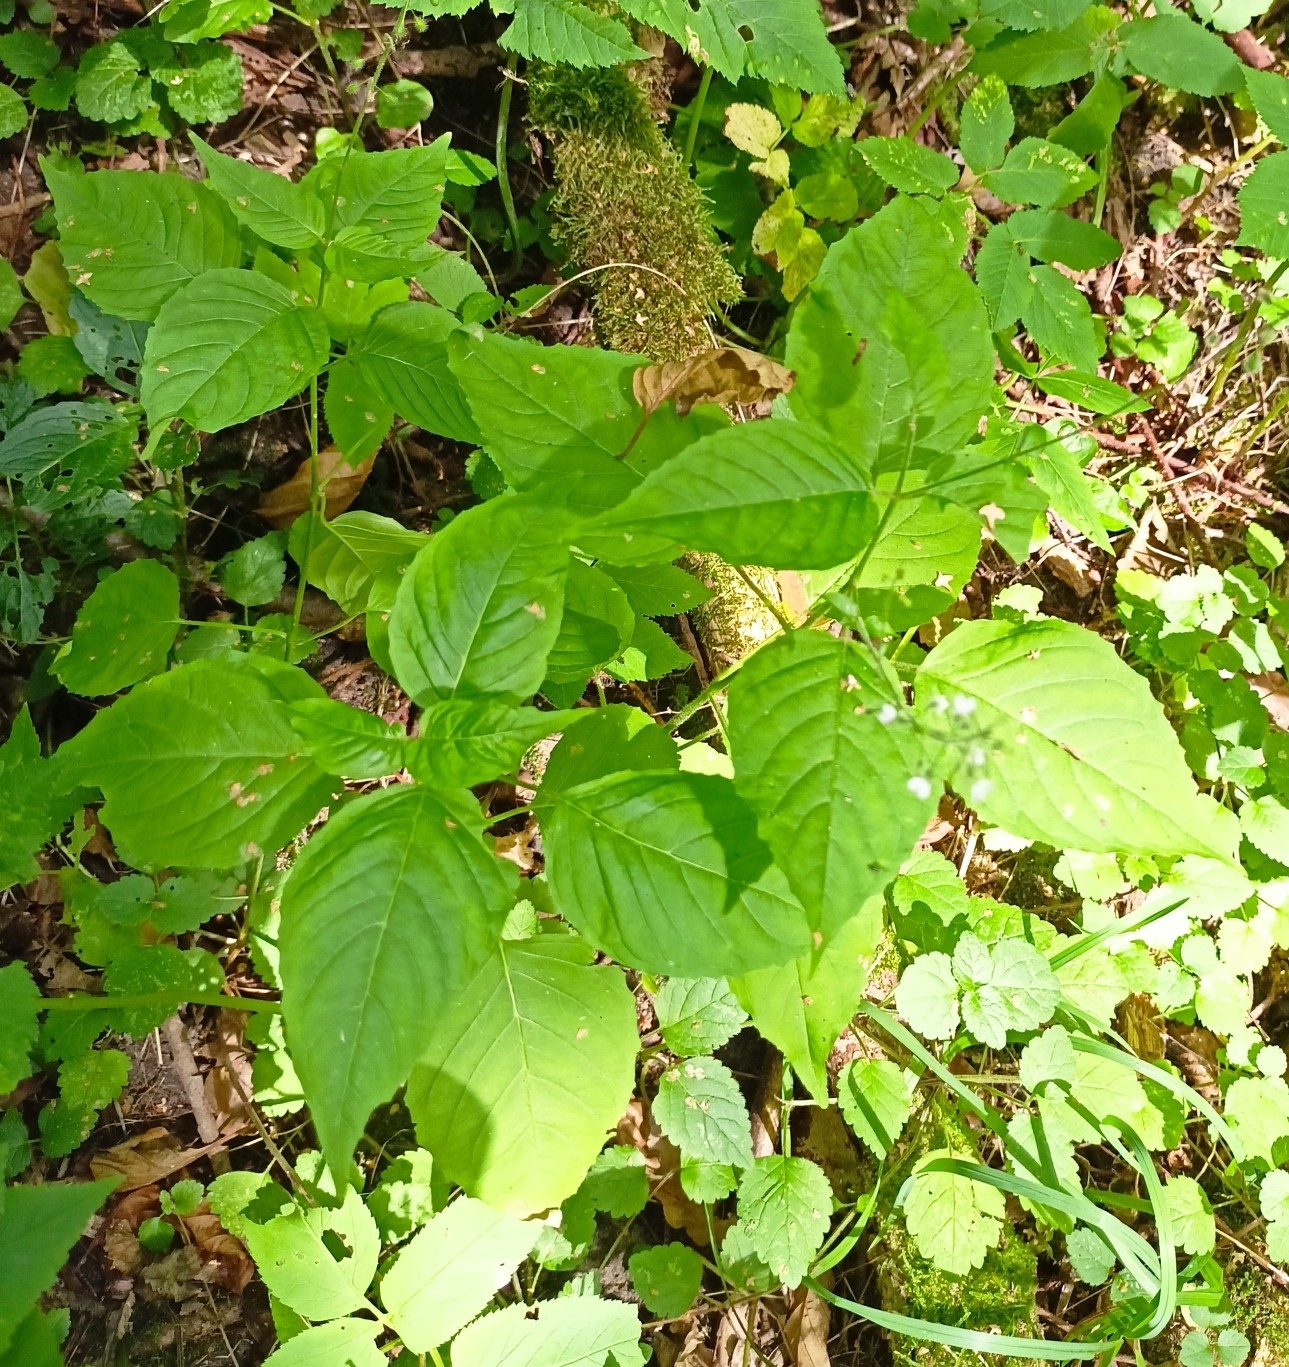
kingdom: Plantae
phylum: Tracheophyta
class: Magnoliopsida
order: Myrtales
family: Onagraceae
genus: Circaea
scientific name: Circaea lutetiana
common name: Enchanter's-nightshade
